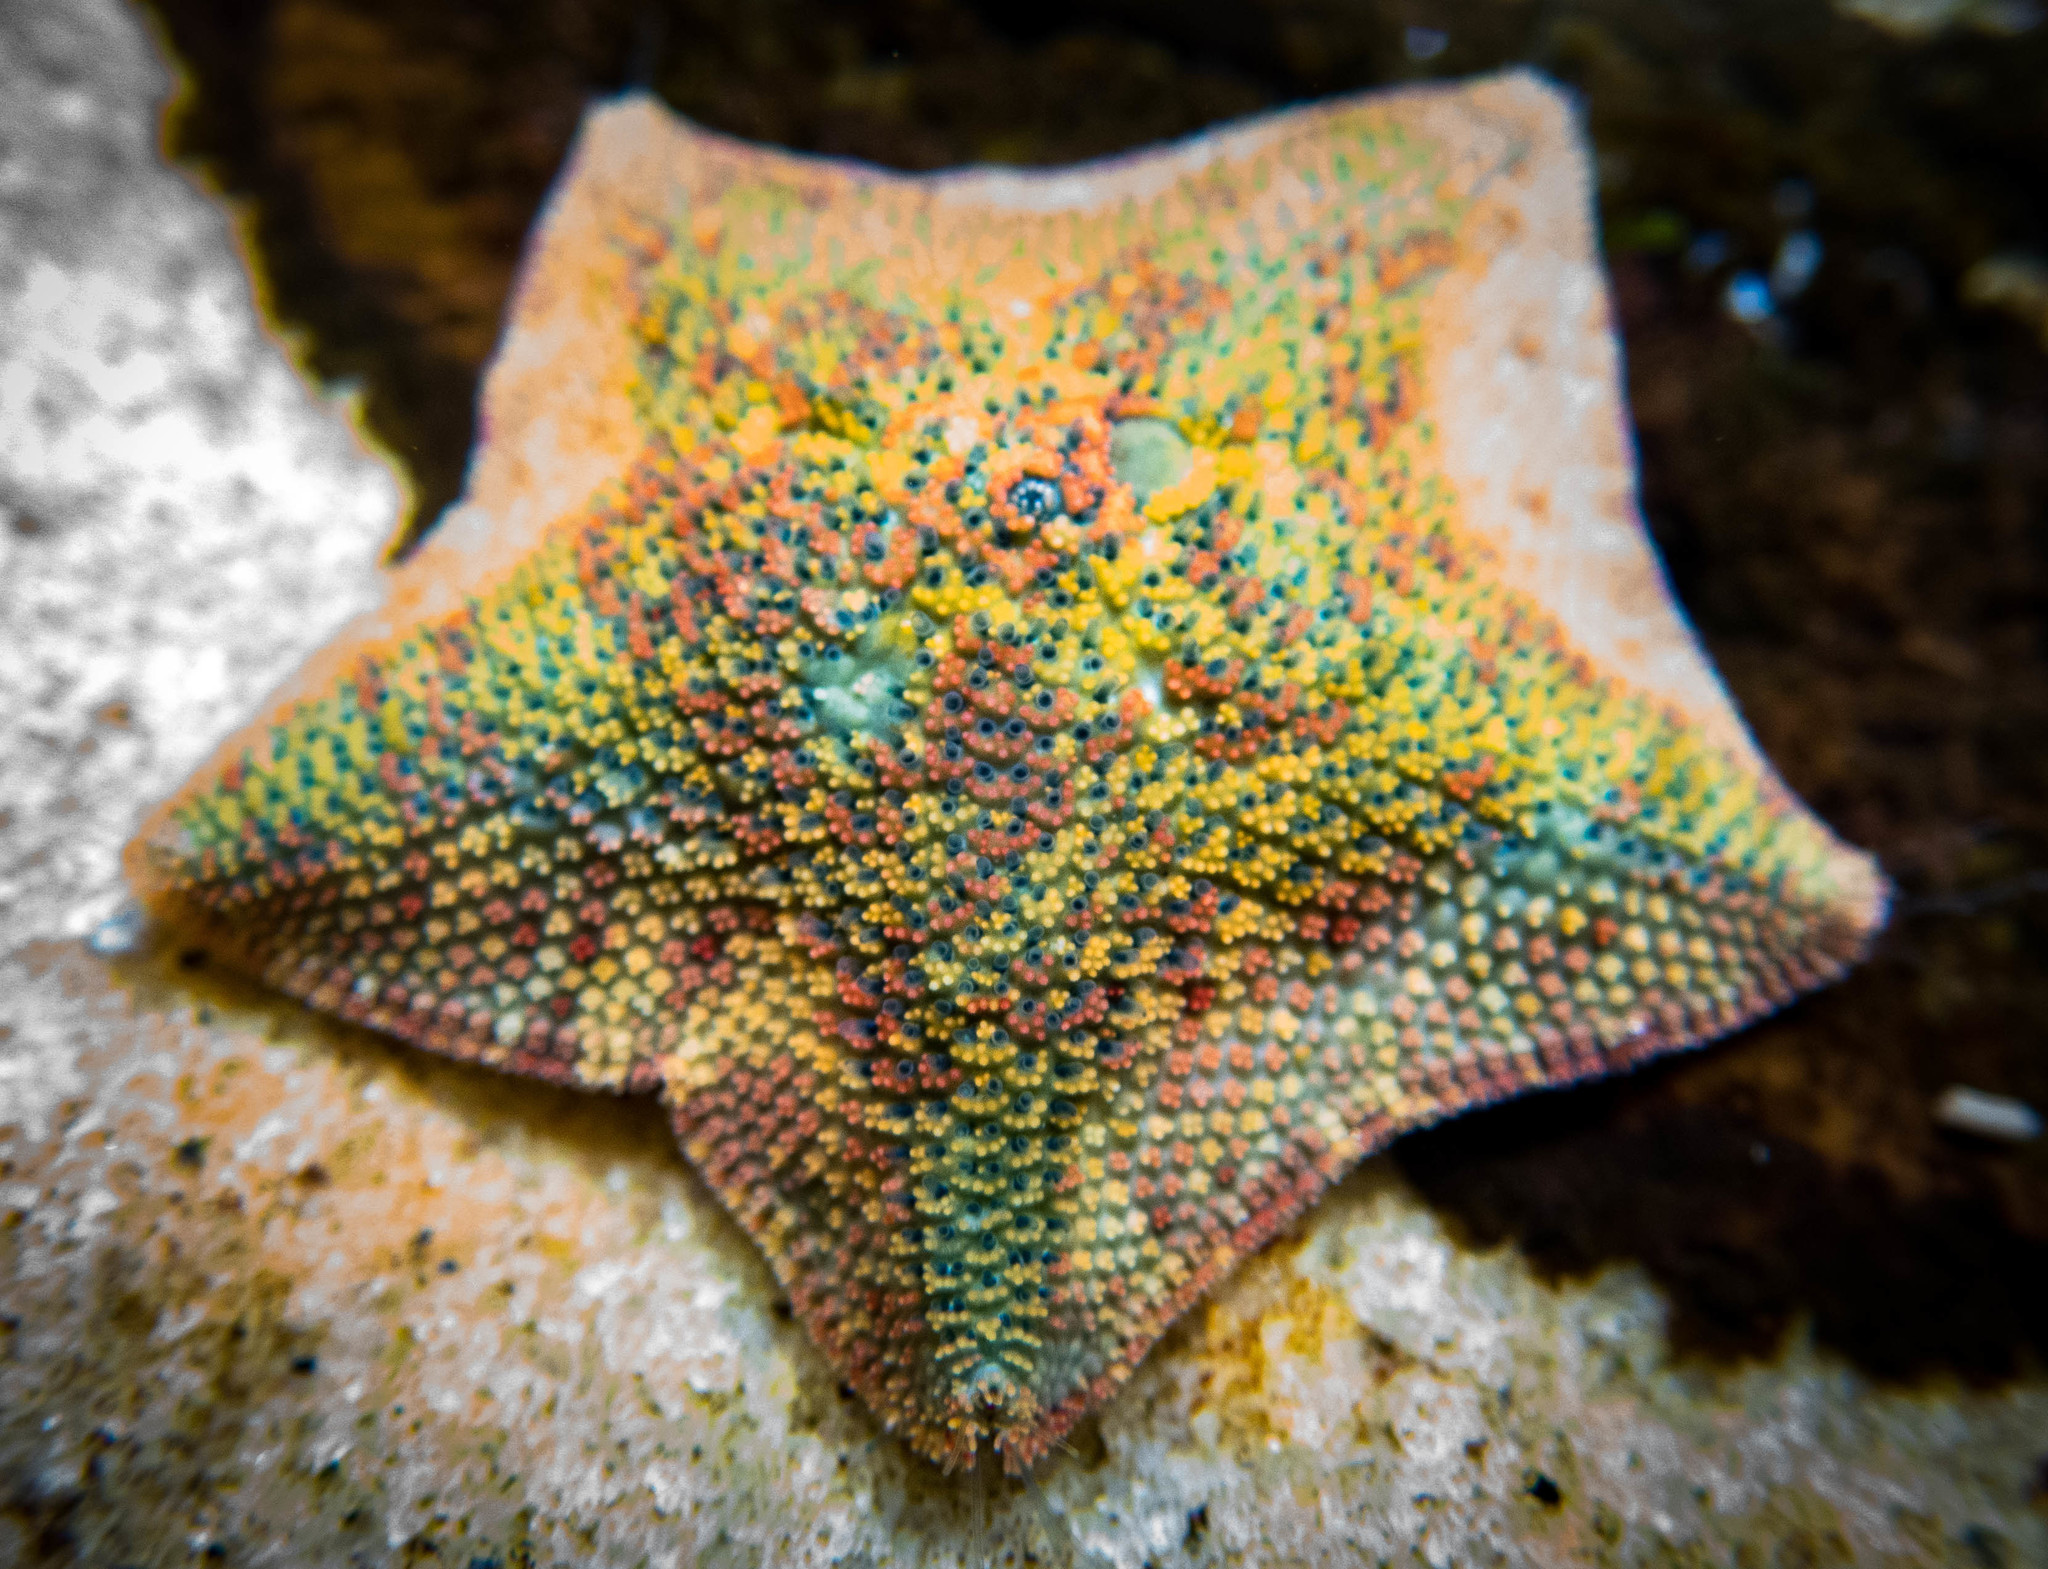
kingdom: Animalia
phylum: Echinodermata
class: Asteroidea
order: Valvatida
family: Asterinidae
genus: Parvulastra
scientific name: Parvulastra exigua
